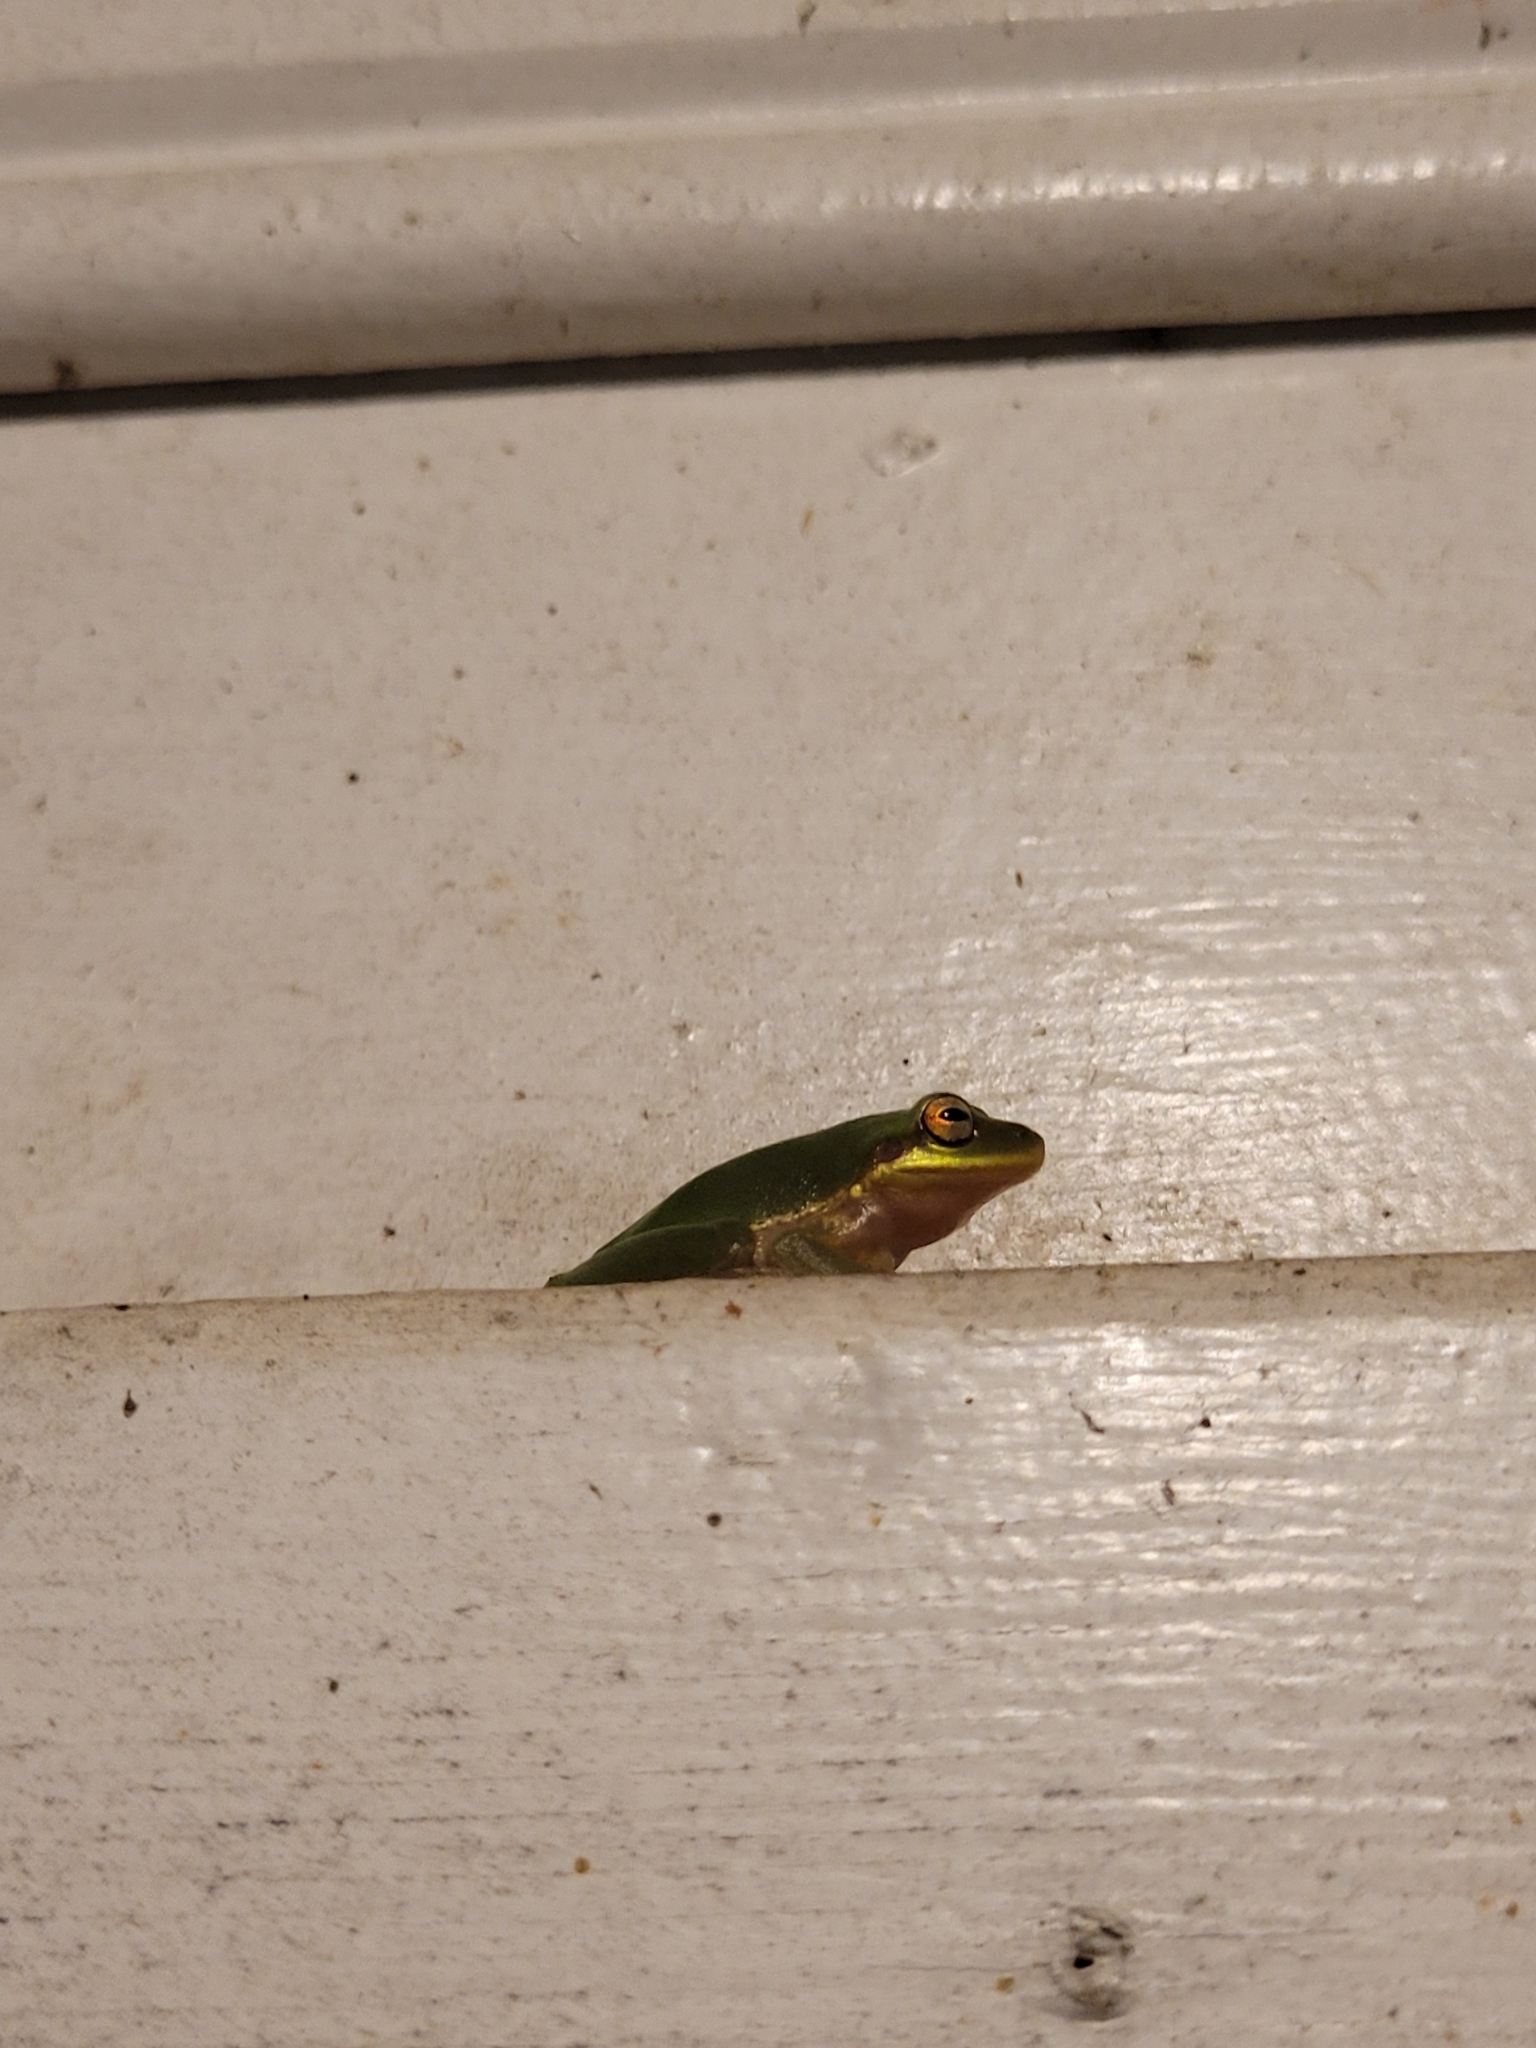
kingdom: Animalia
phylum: Chordata
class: Amphibia
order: Anura
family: Hylidae
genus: Dryophytes
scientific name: Dryophytes squirellus
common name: Squirrel treefrog
